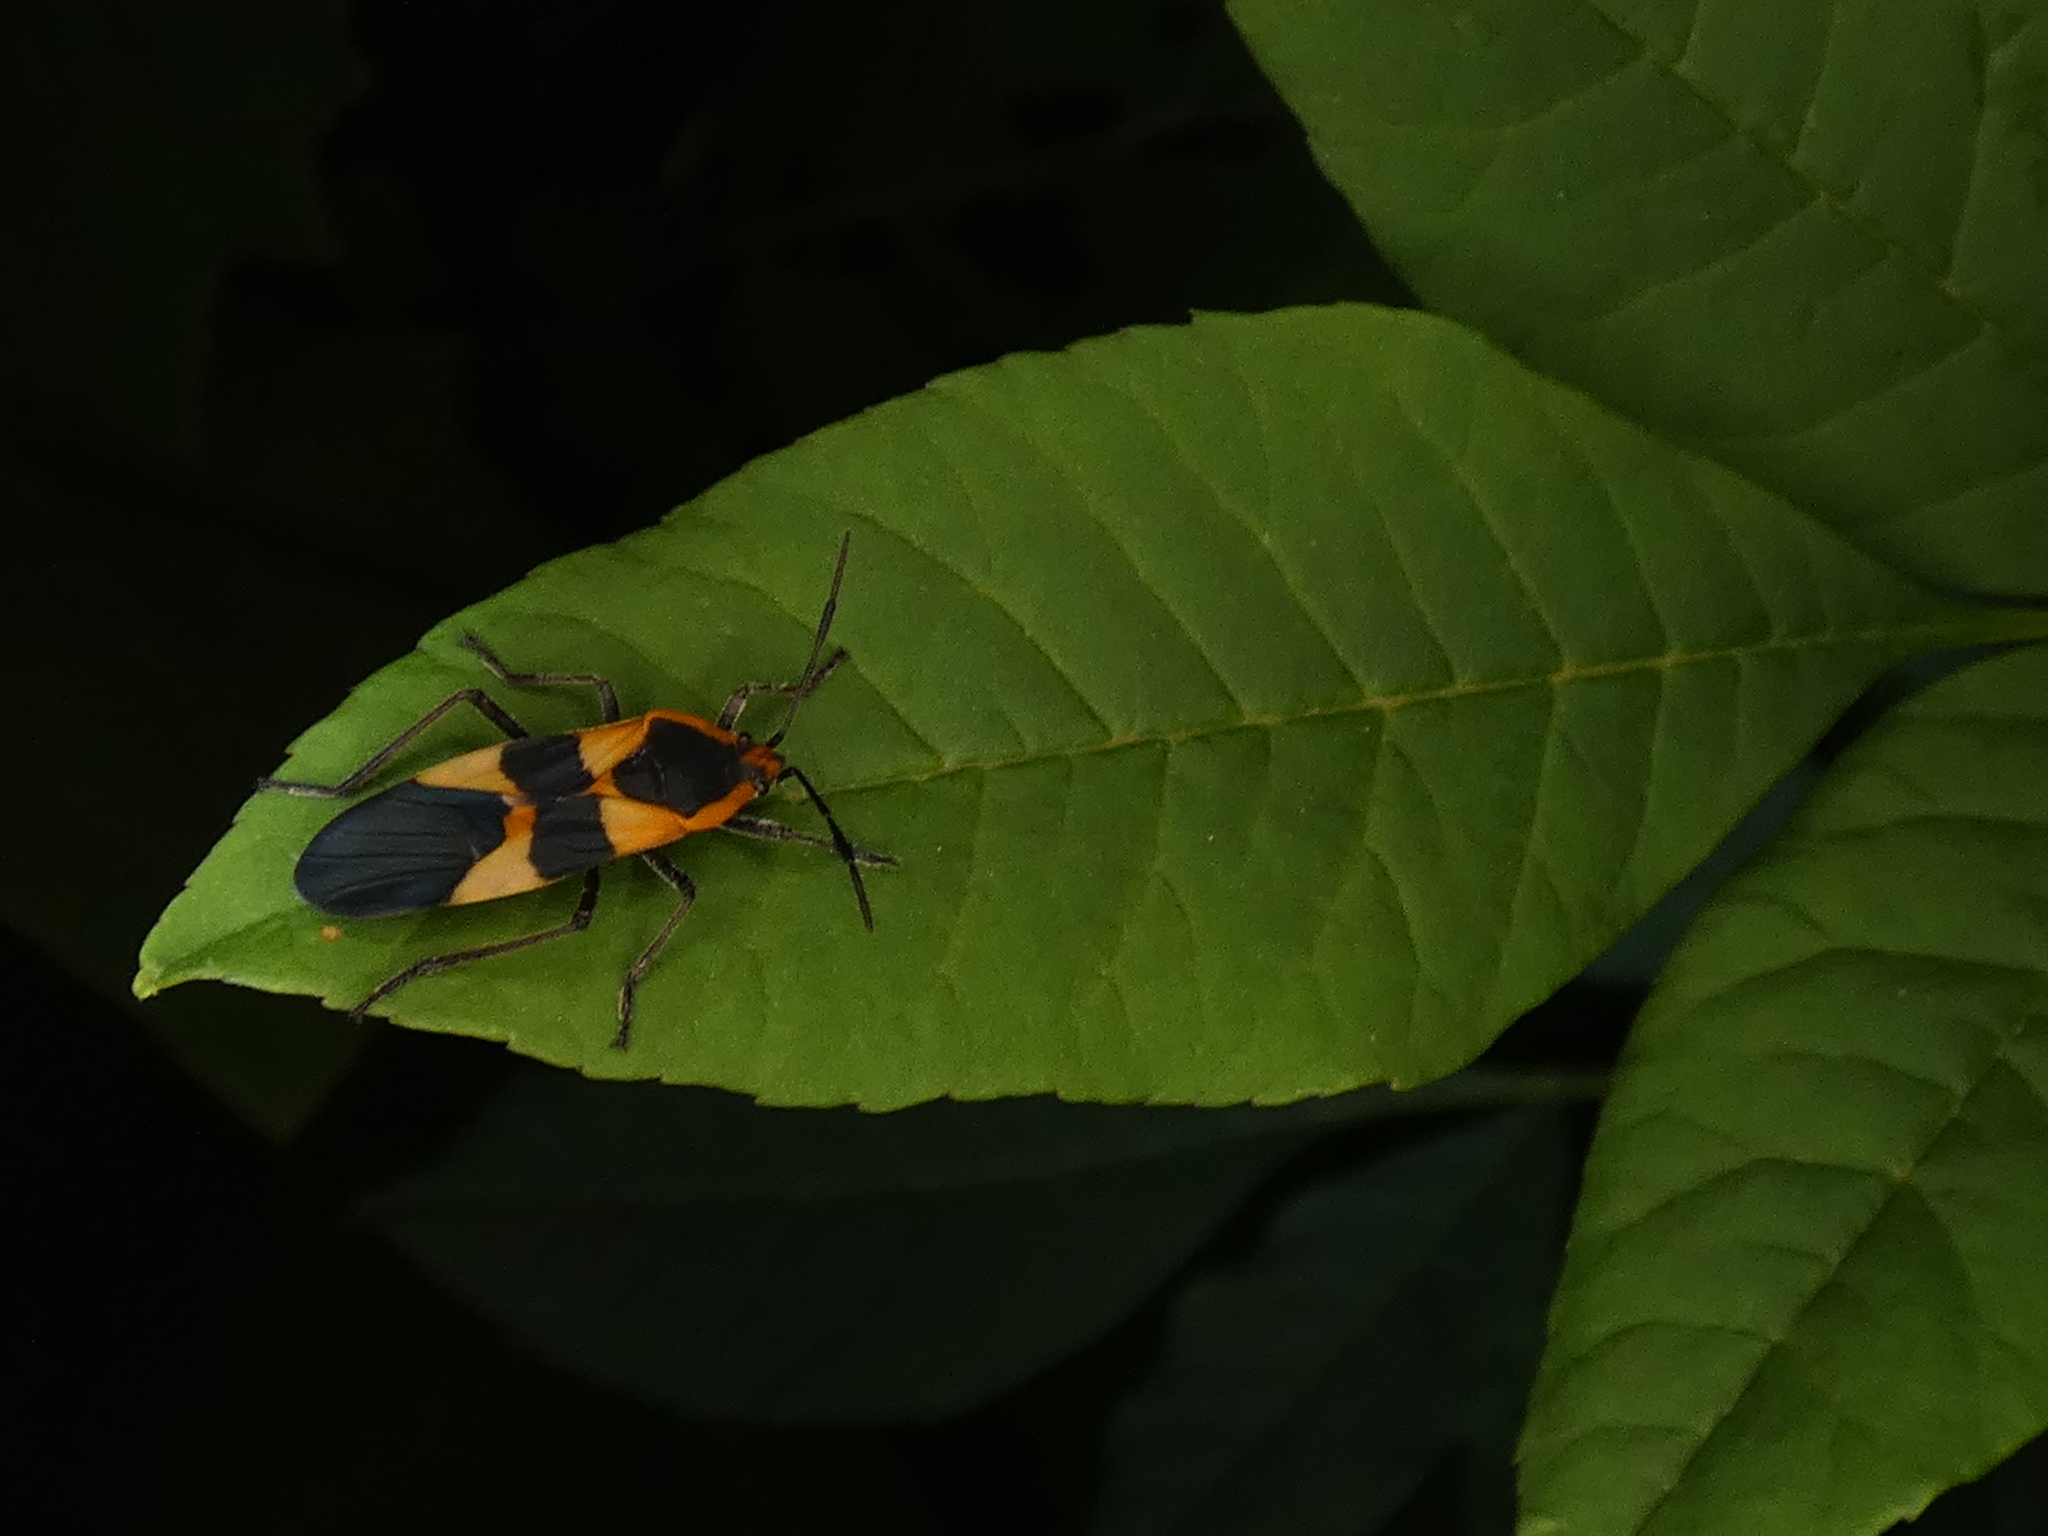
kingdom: Animalia
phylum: Arthropoda
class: Insecta
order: Hemiptera
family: Lygaeidae
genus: Oncopeltus
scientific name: Oncopeltus fasciatus
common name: Large milkweed bug
